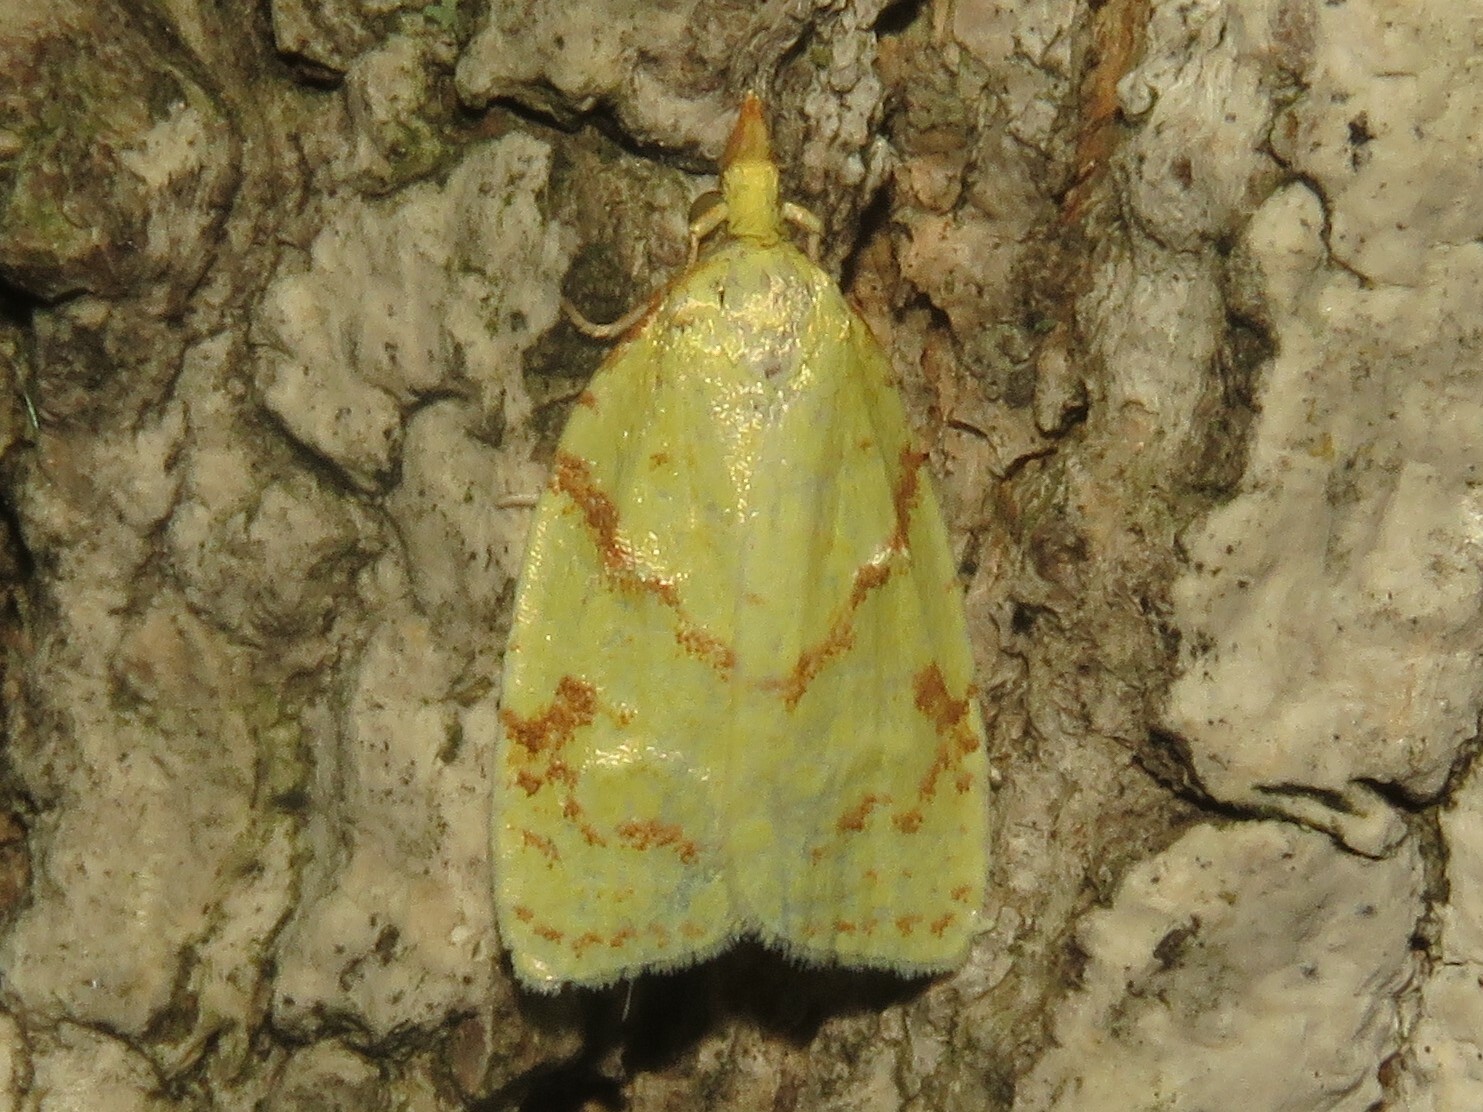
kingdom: Animalia
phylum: Arthropoda
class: Insecta
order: Lepidoptera
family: Tortricidae
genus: Cenopis
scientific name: Cenopis pettitana
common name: Maple-basswood leafroller moth
